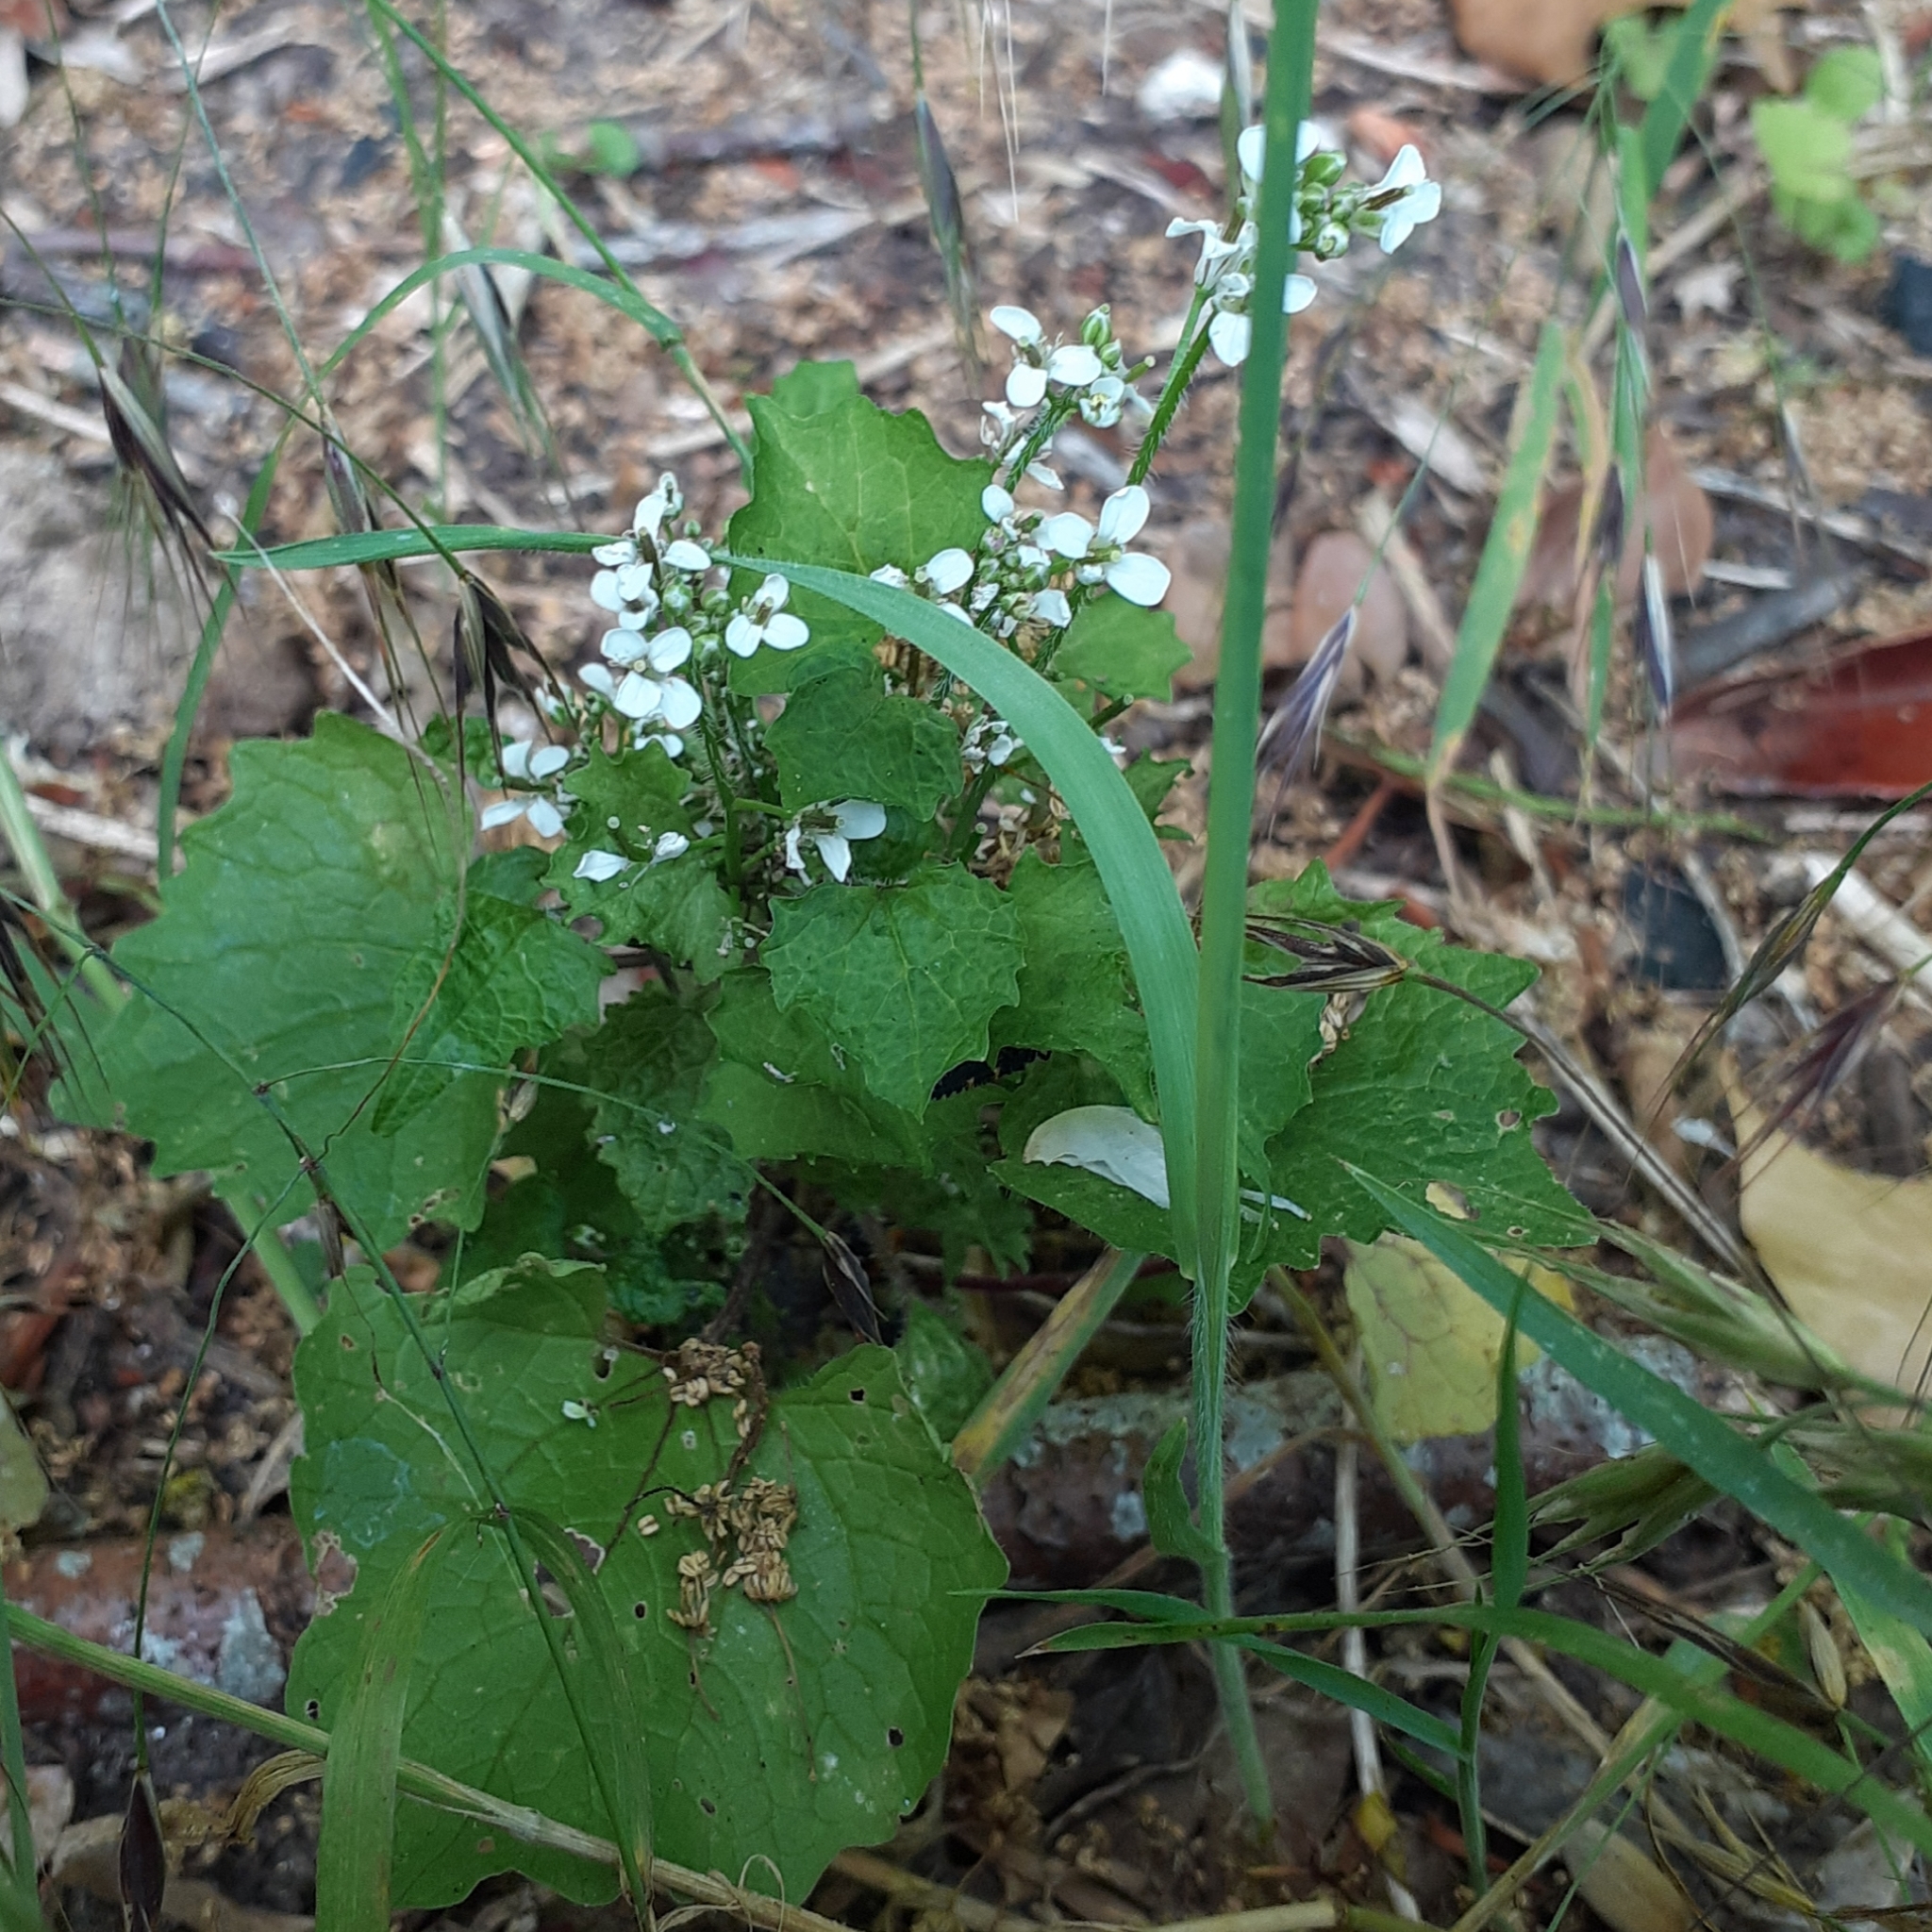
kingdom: Plantae
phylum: Tracheophyta
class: Magnoliopsida
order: Brassicales
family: Brassicaceae
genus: Alliaria
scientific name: Alliaria petiolata
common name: Garlic mustard
